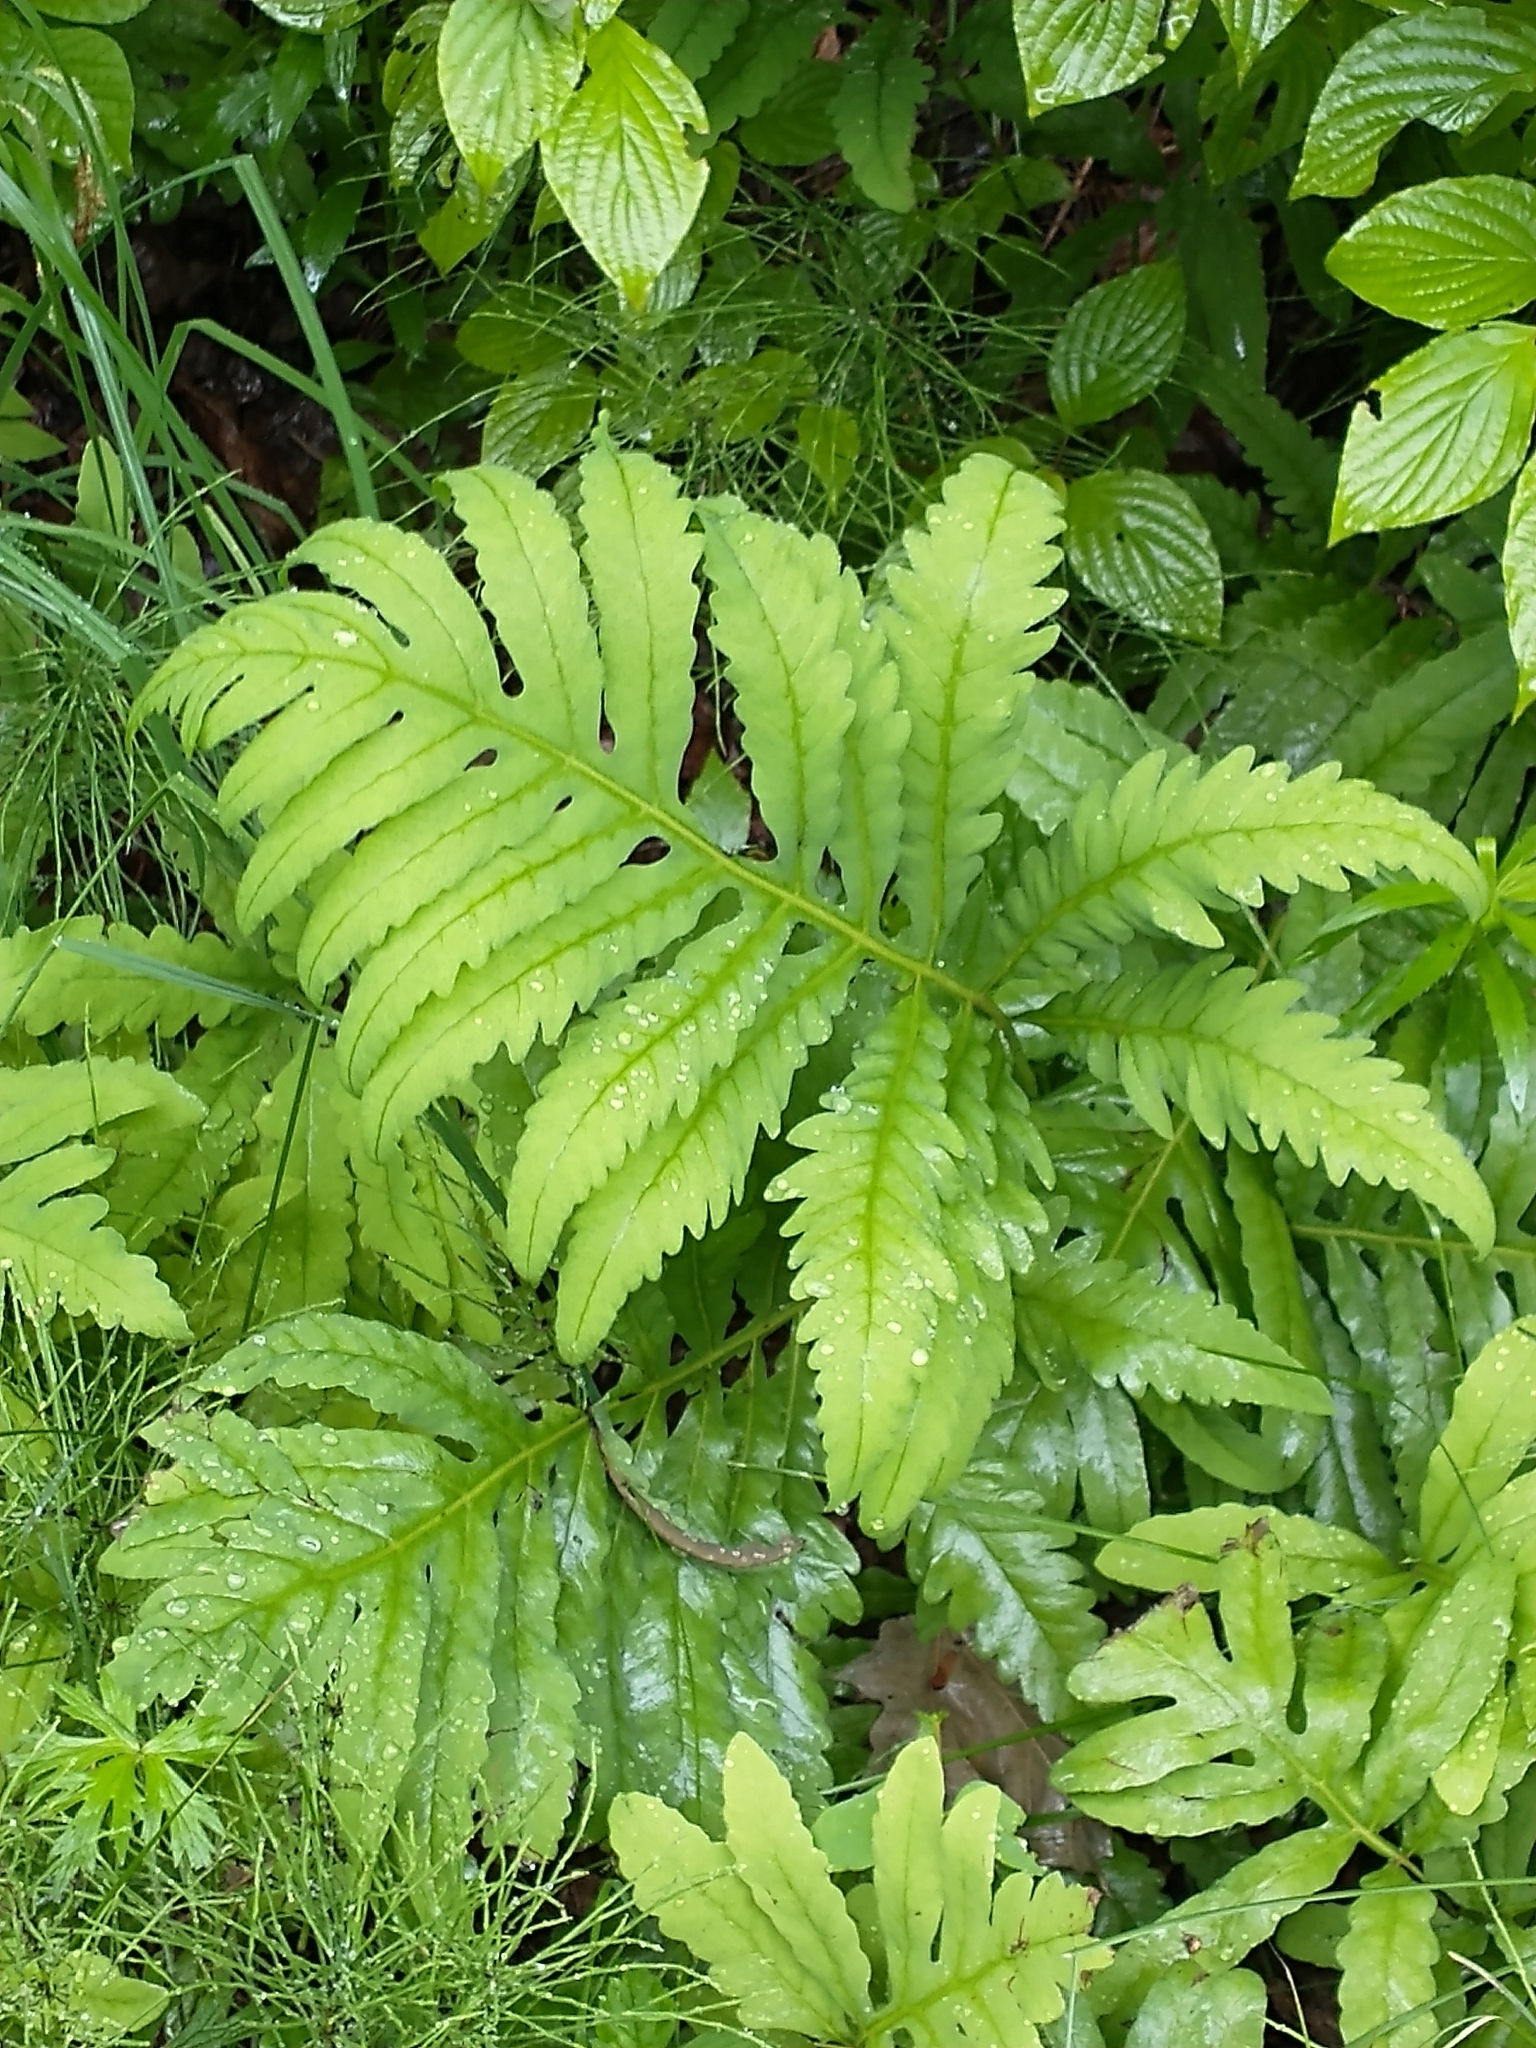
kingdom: Plantae
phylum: Tracheophyta
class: Polypodiopsida
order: Polypodiales
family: Onocleaceae
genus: Onoclea
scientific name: Onoclea sensibilis
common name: Sensitive fern
